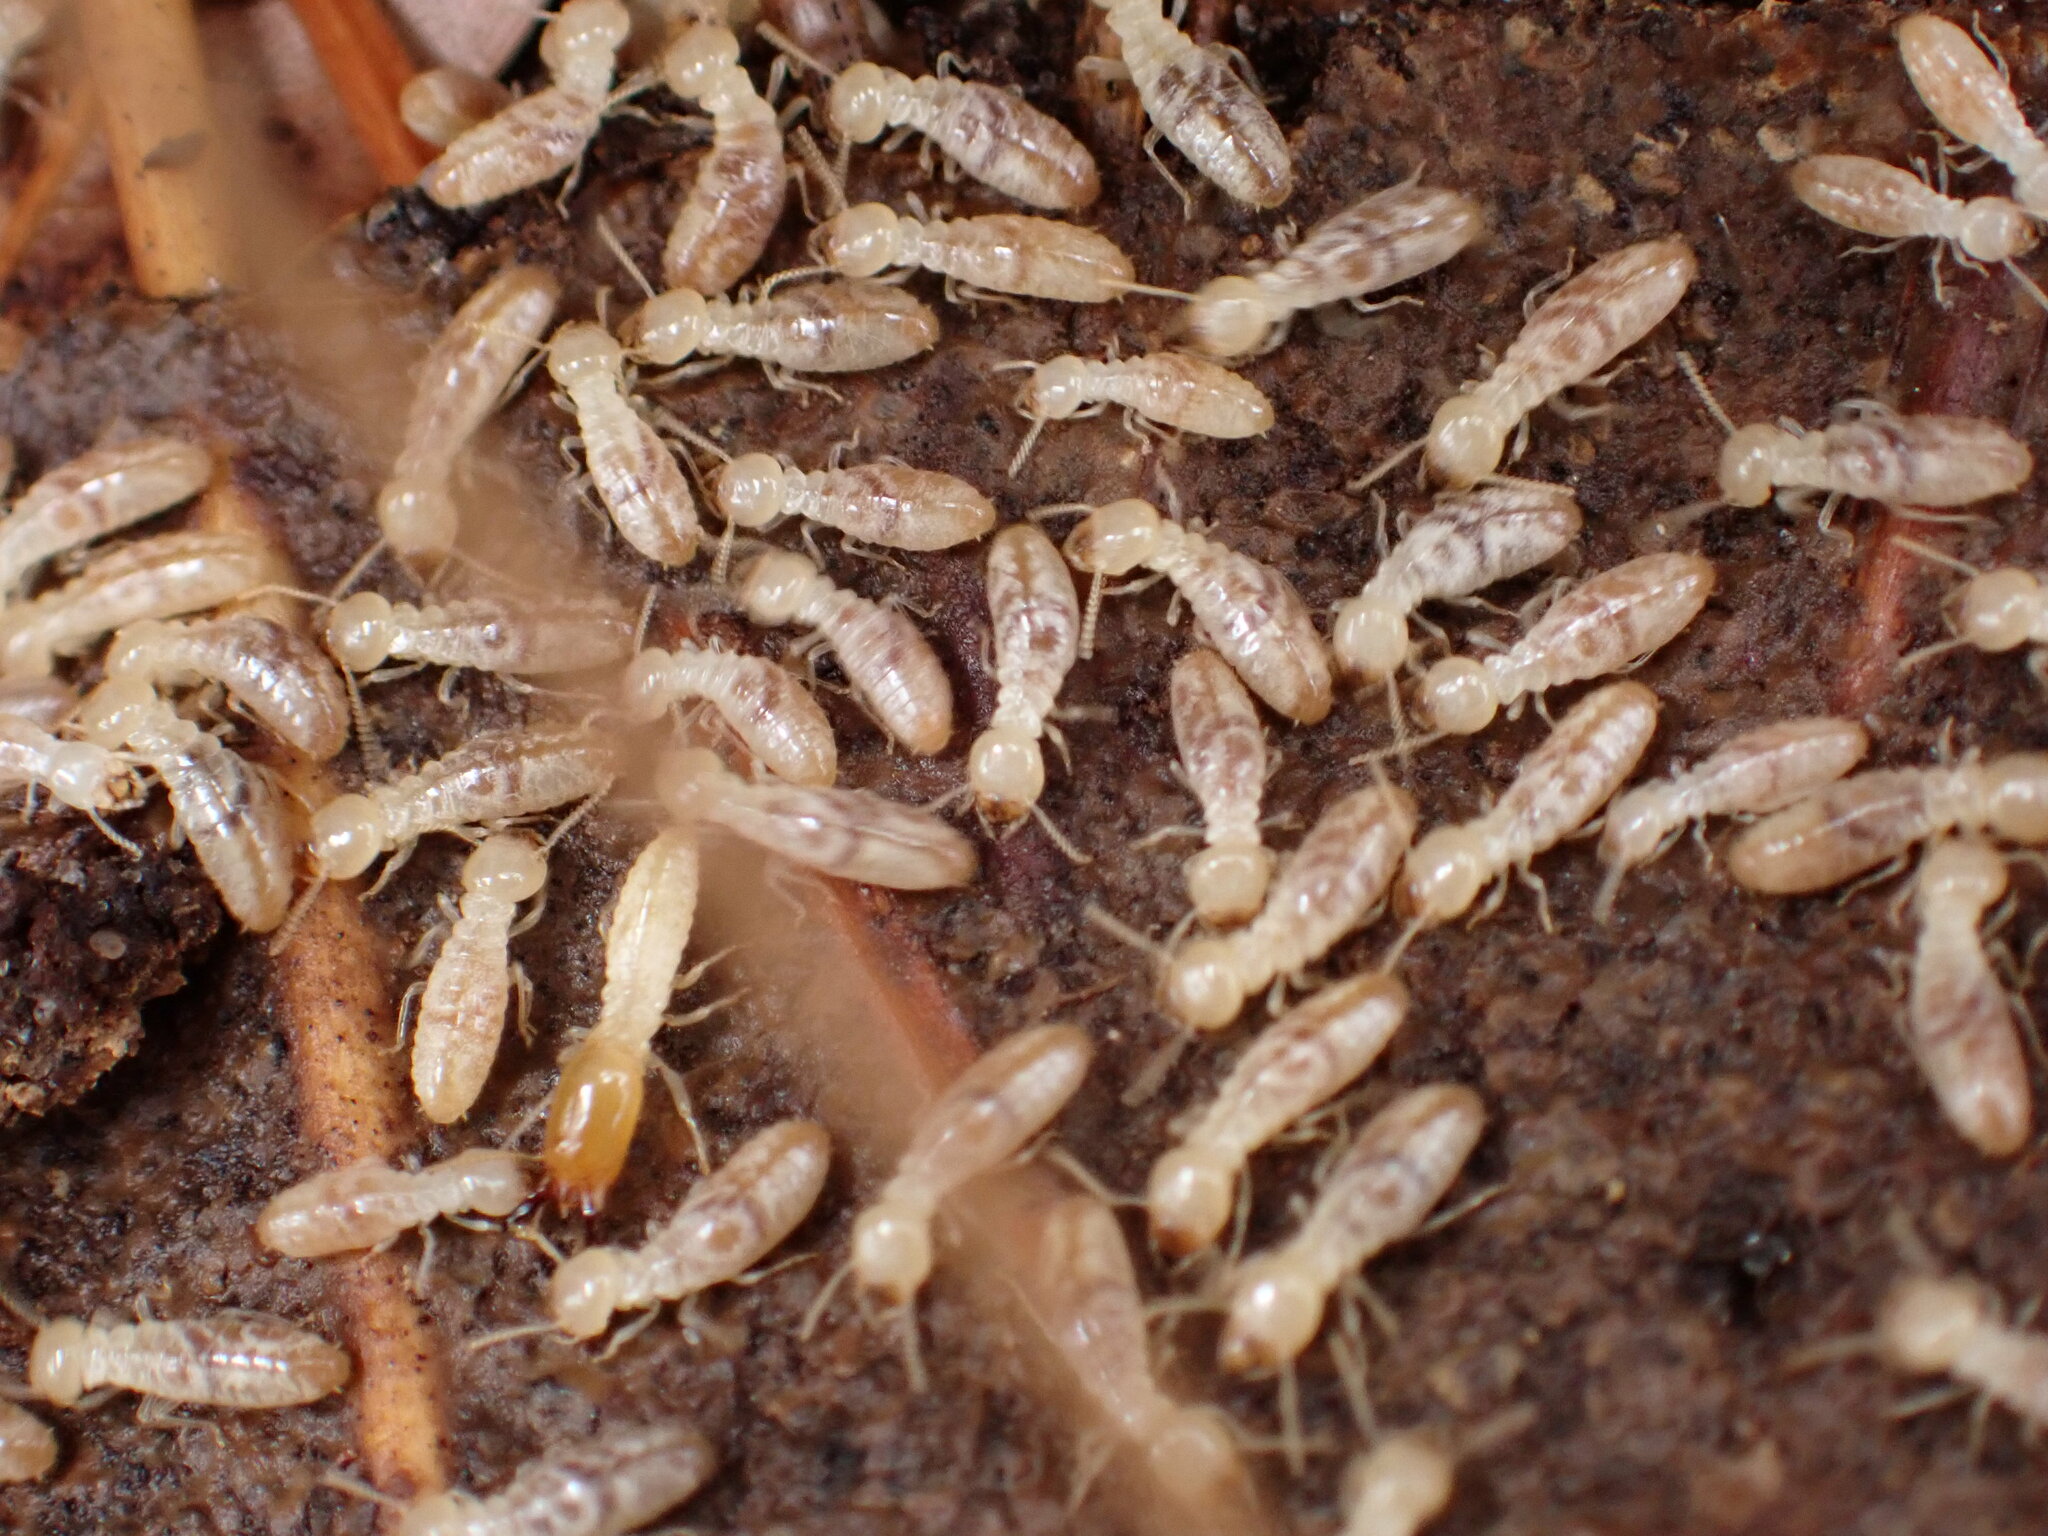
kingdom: Animalia
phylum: Arthropoda
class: Insecta
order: Blattodea
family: Rhinotermitidae
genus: Reticulitermes
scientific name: Reticulitermes flavipes
